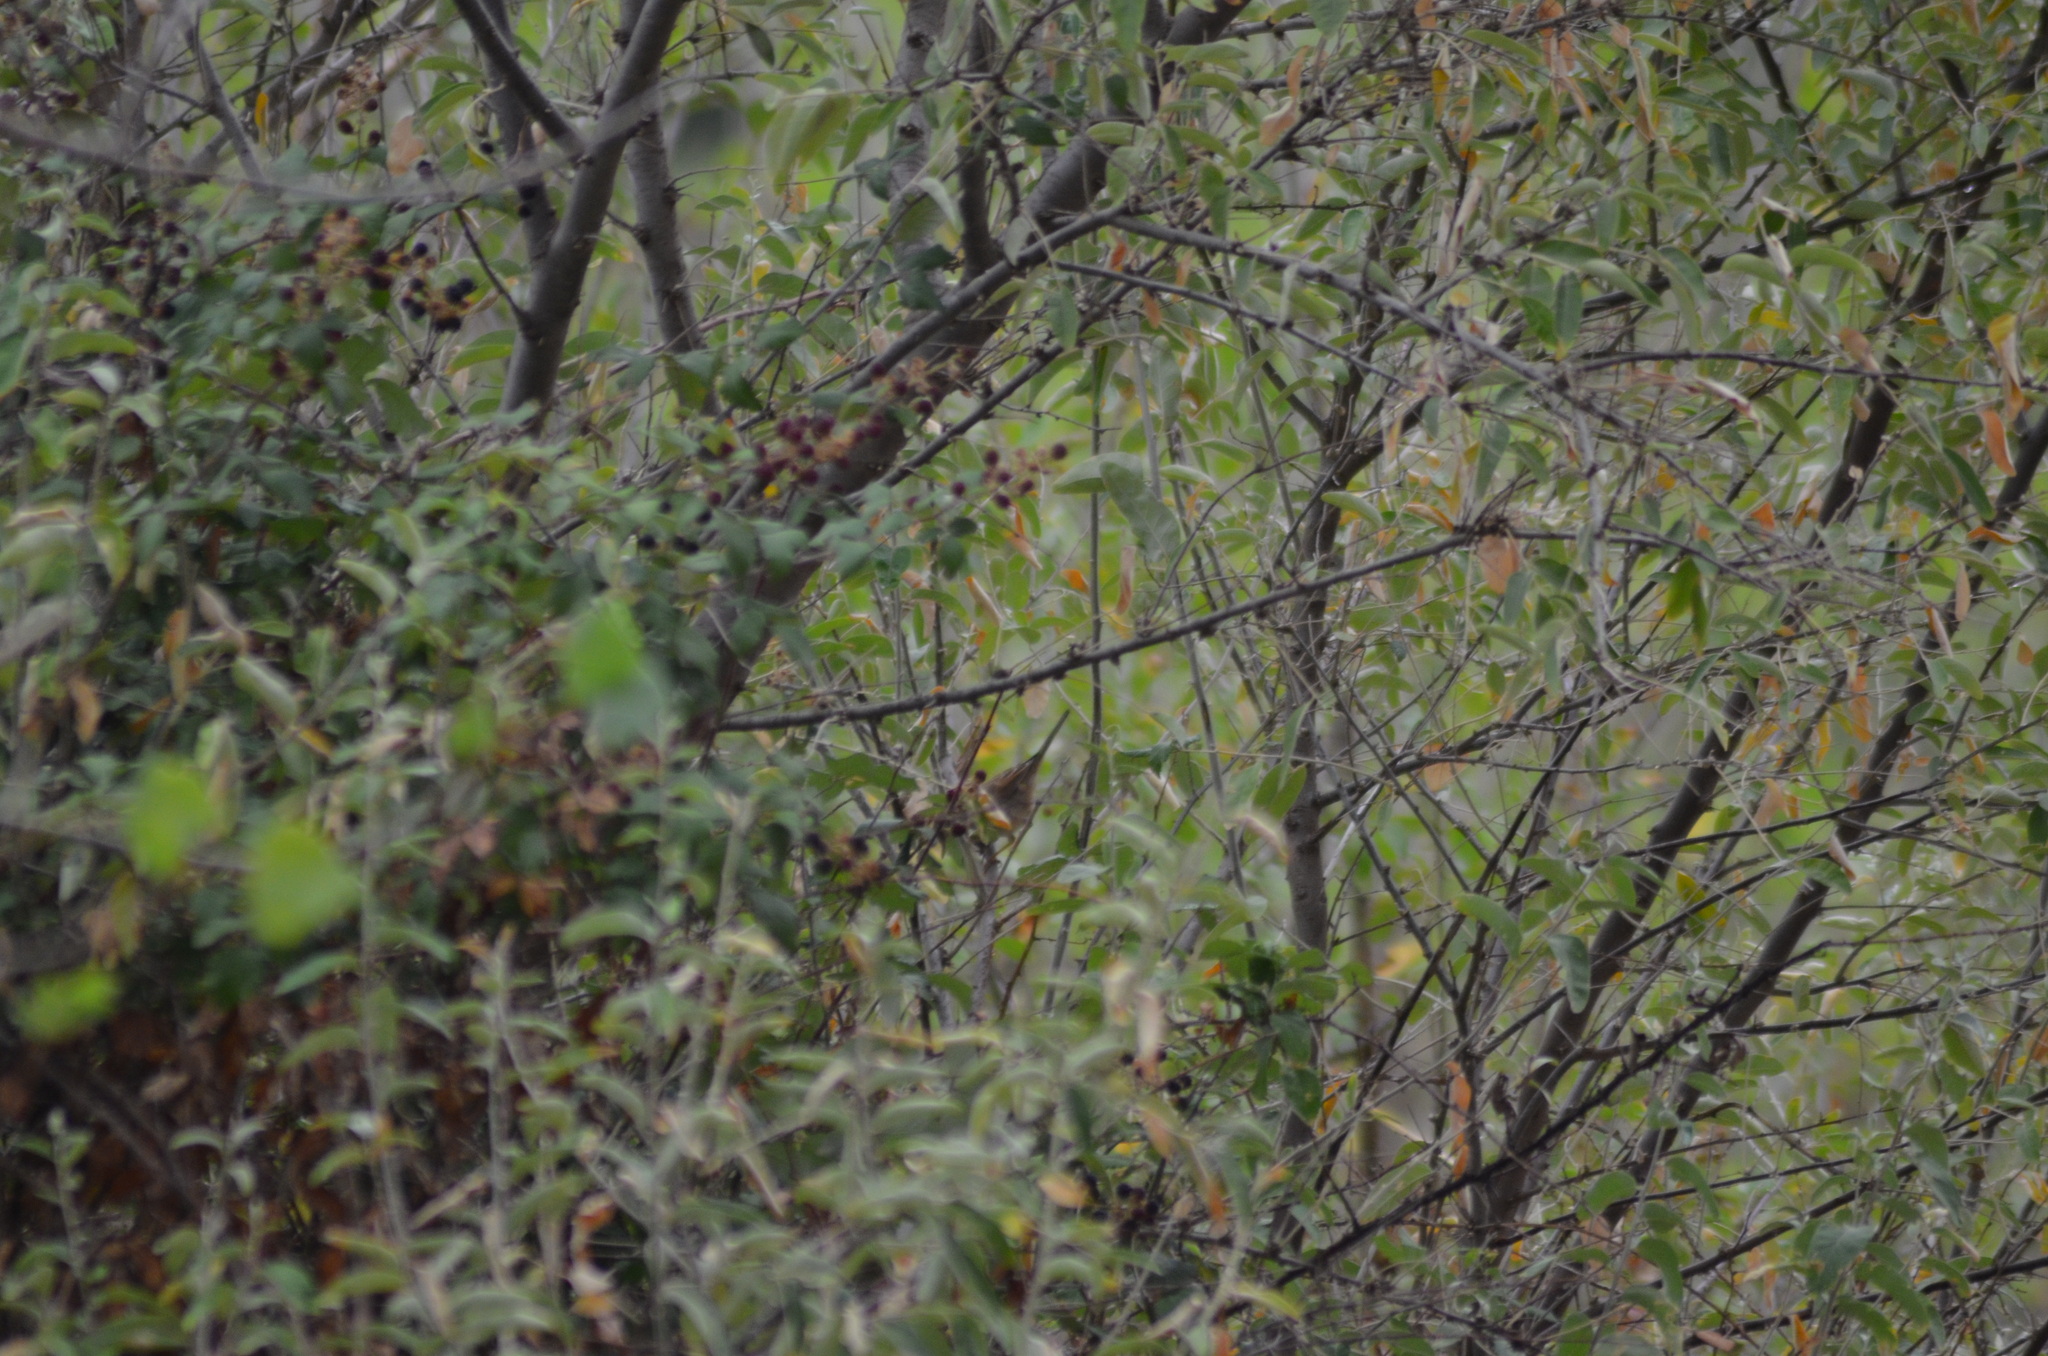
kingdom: Animalia
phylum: Chordata
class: Aves
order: Passeriformes
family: Muscicapidae
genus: Luscinia
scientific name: Luscinia megarhynchos
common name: Common nightingale
